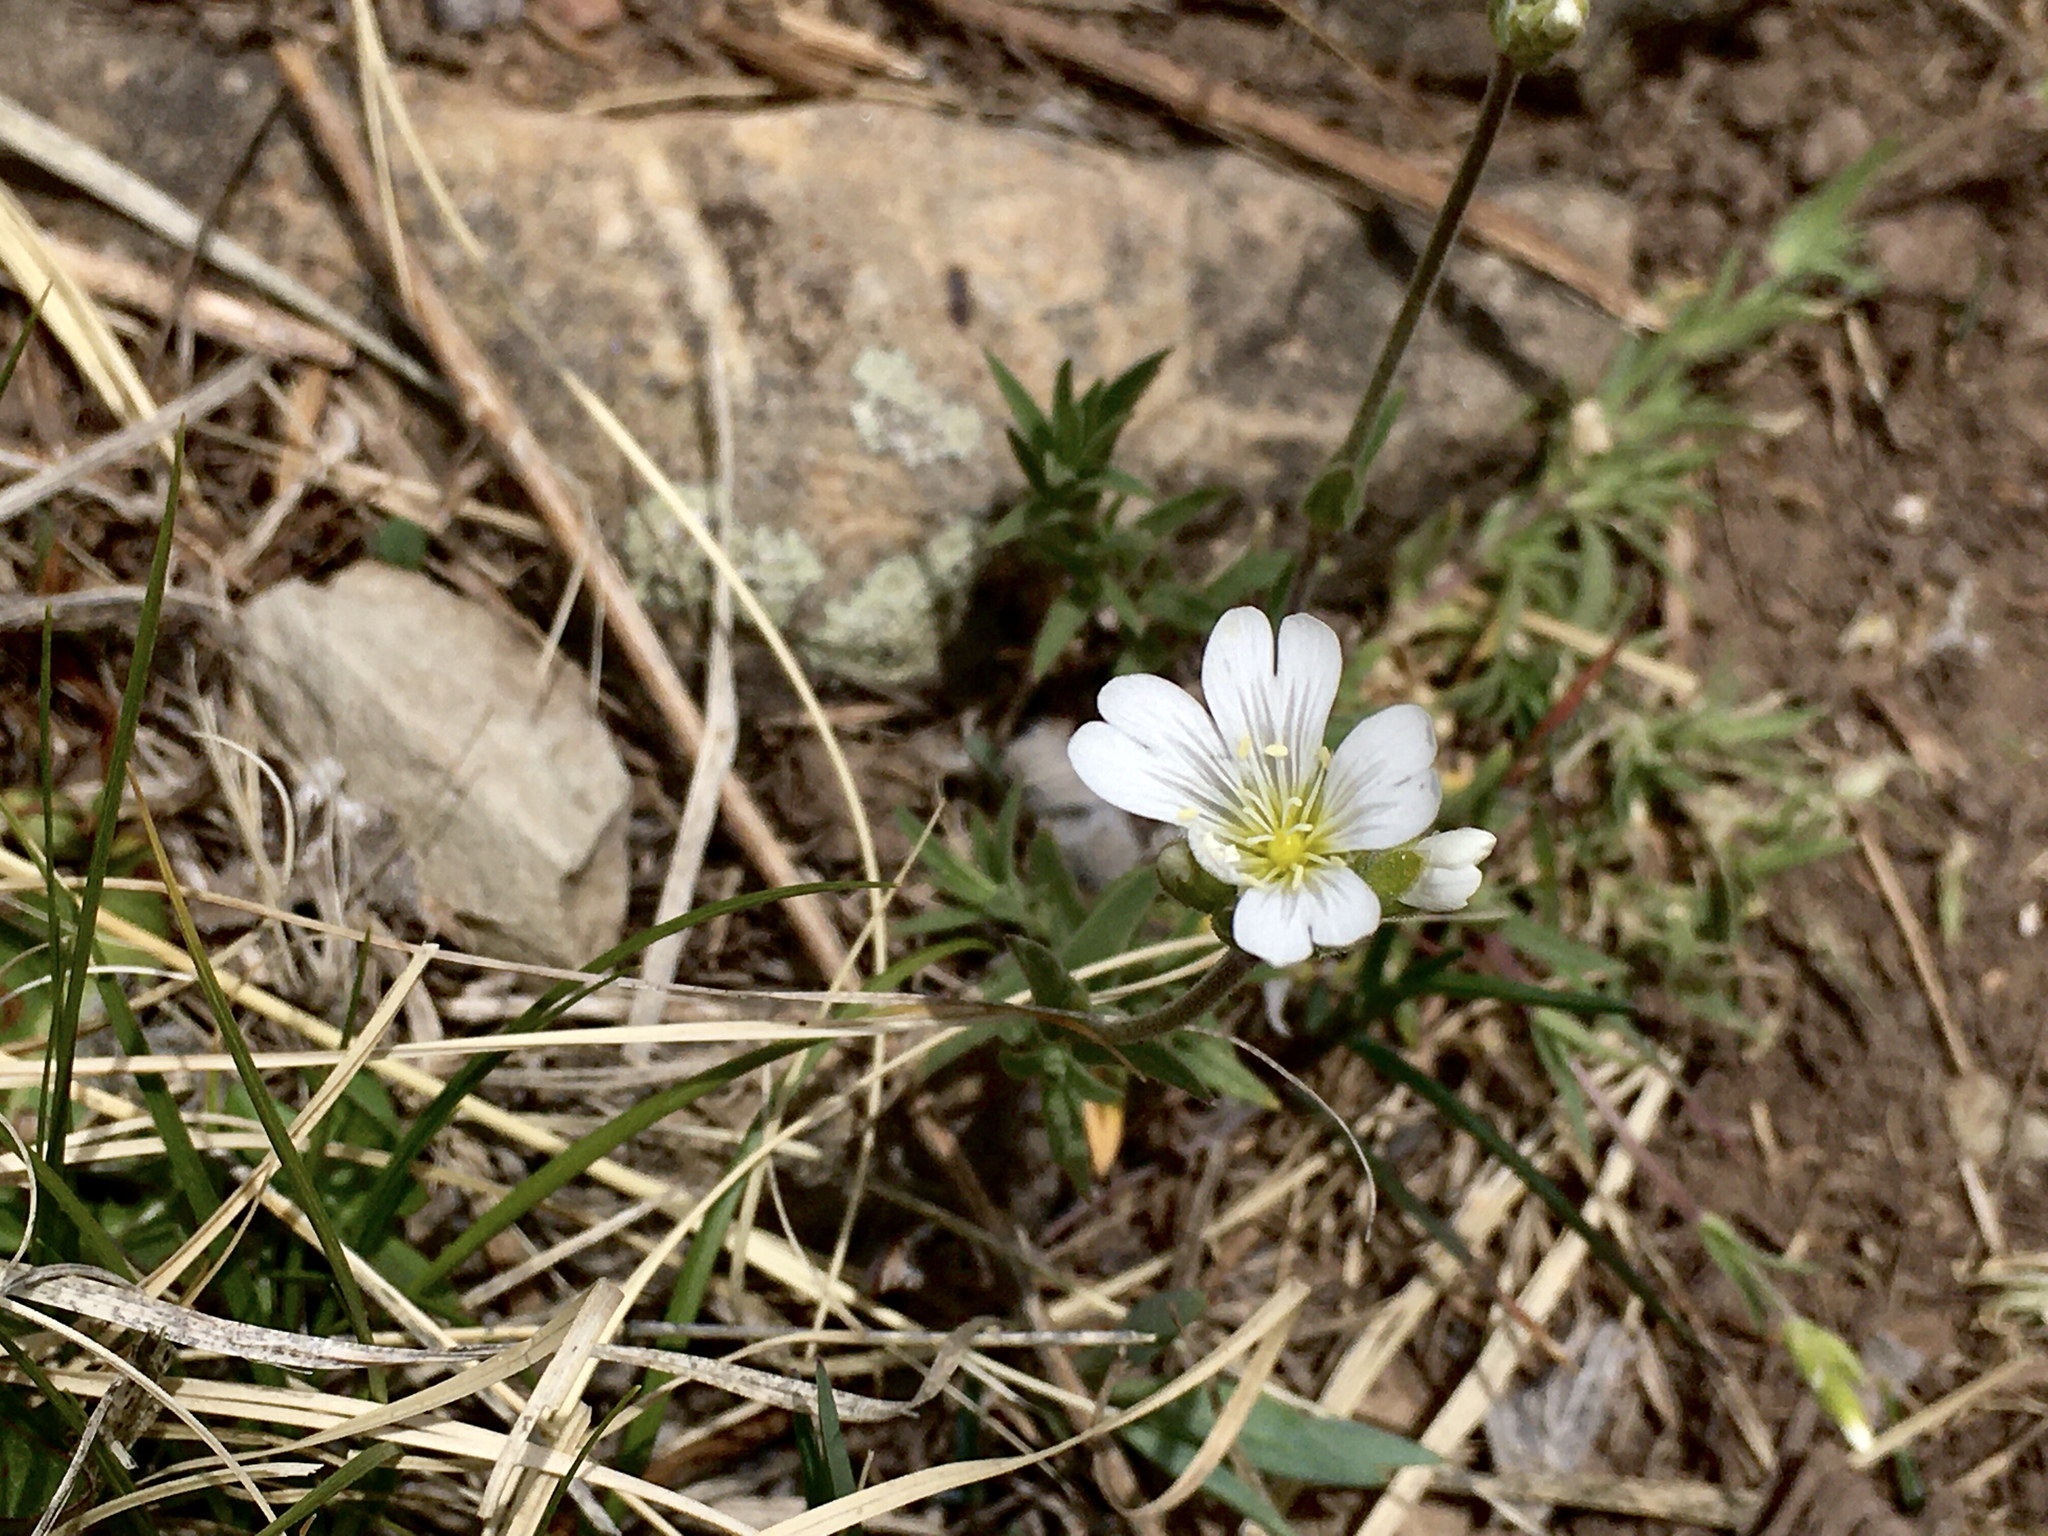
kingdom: Plantae
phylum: Tracheophyta
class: Magnoliopsida
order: Caryophyllales
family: Caryophyllaceae
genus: Cerastium
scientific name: Cerastium arvense
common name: Field mouse-ear
